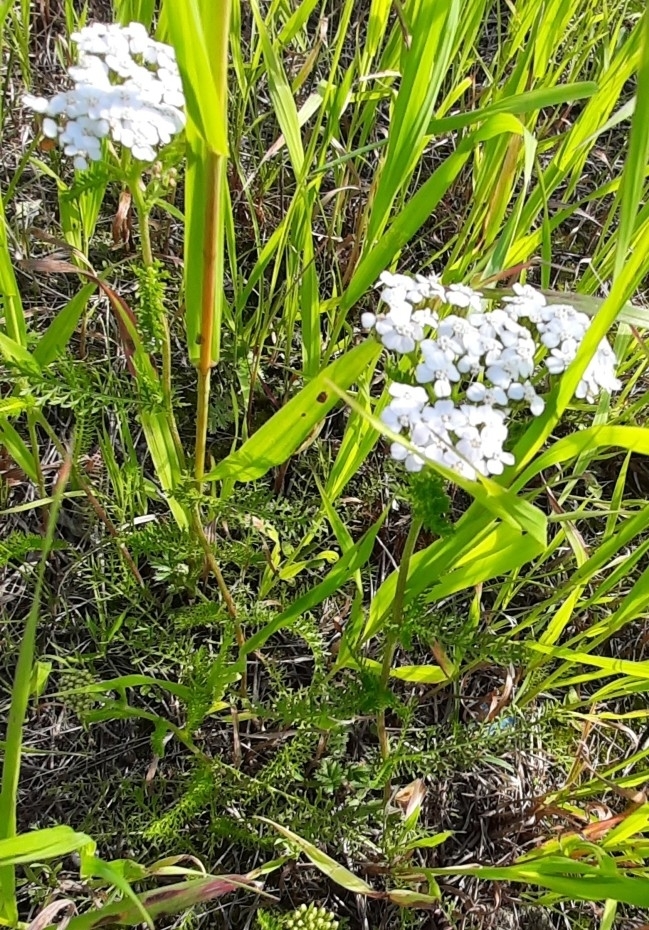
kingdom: Plantae
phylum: Tracheophyta
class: Magnoliopsida
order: Asterales
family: Asteraceae
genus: Achillea
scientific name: Achillea millefolium
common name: Yarrow
